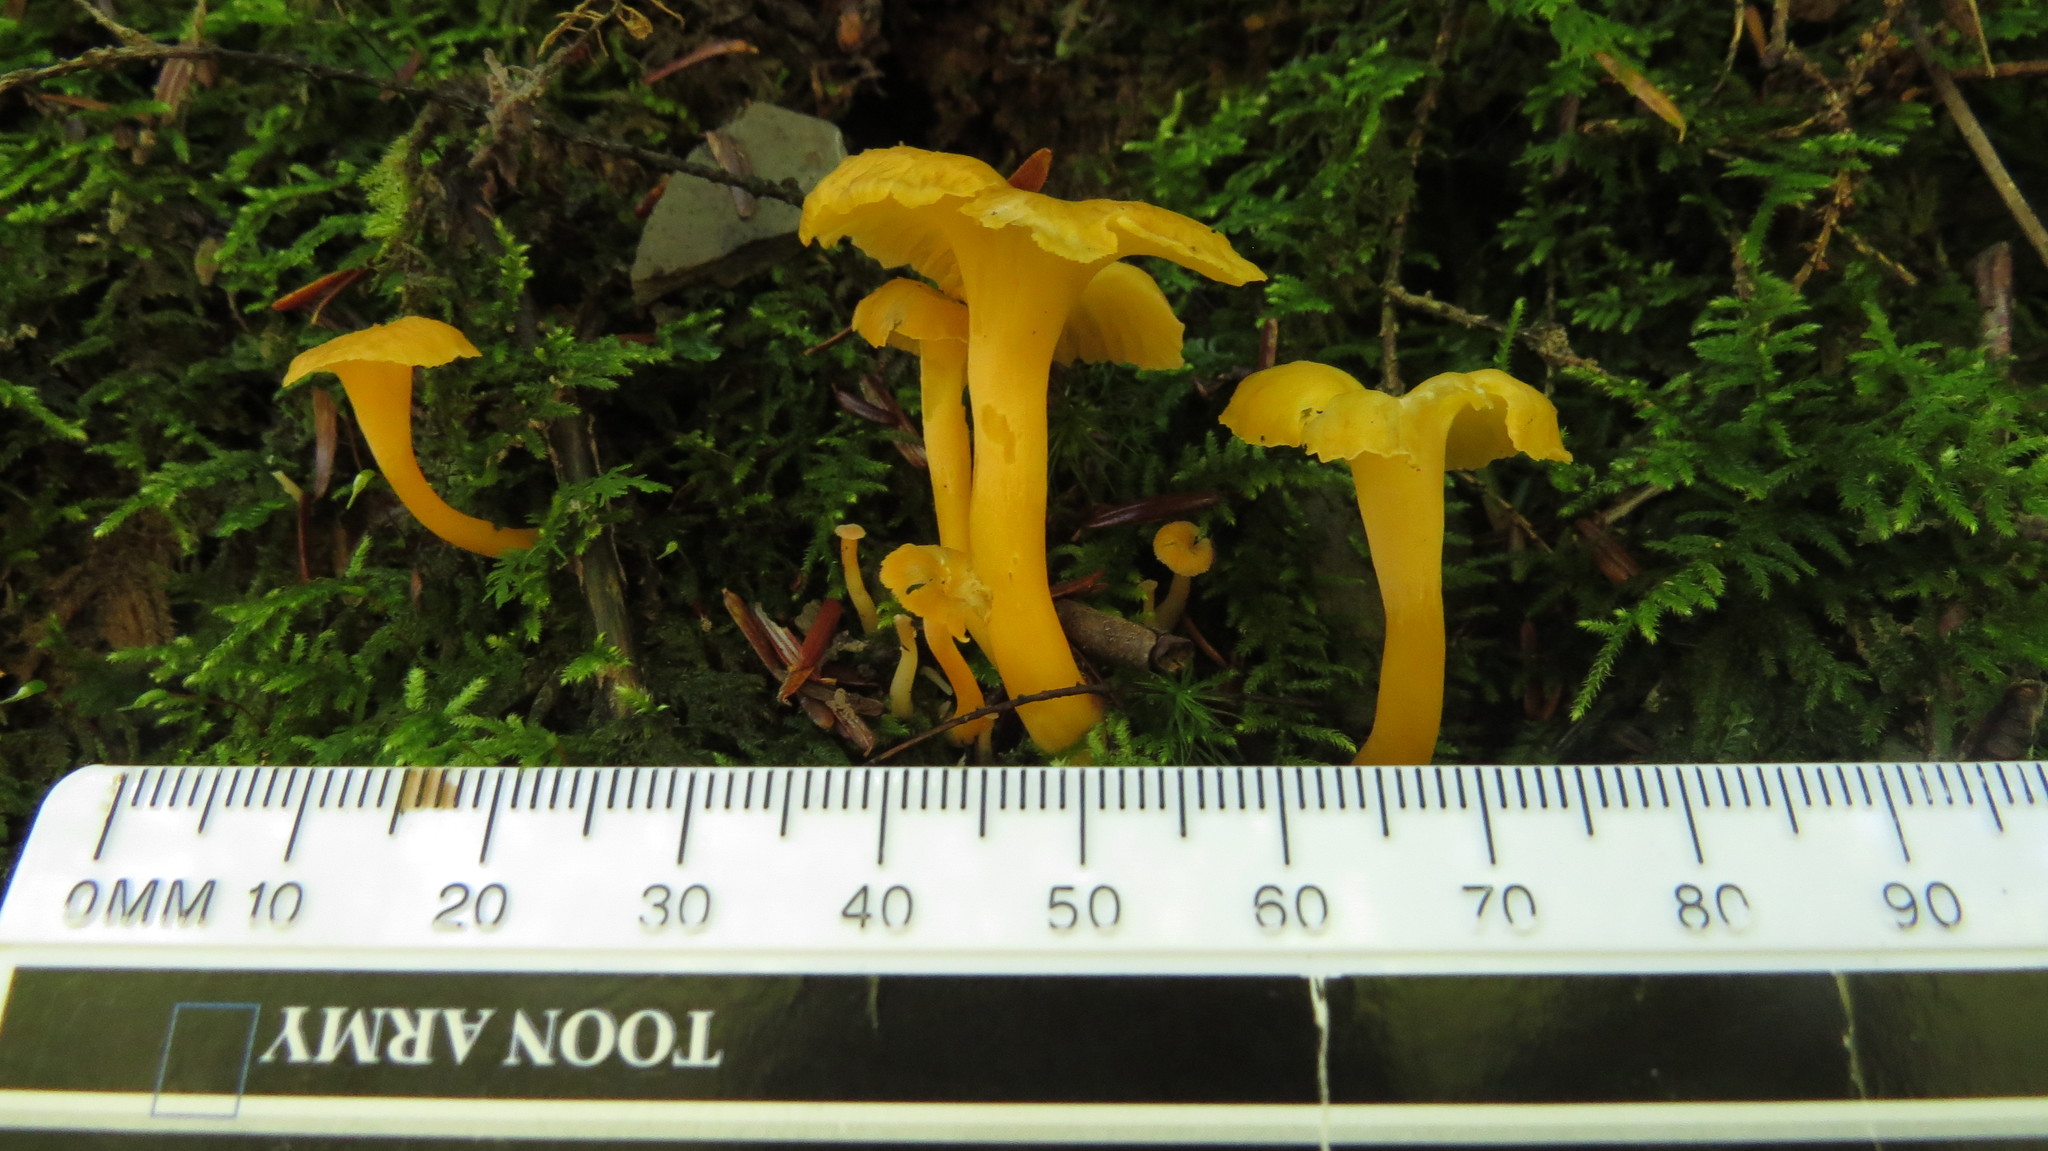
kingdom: Fungi
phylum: Basidiomycota
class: Agaricomycetes
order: Cantharellales
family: Hydnaceae
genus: Craterellus
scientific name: Craterellus lutescens
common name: Golden chanterelle
